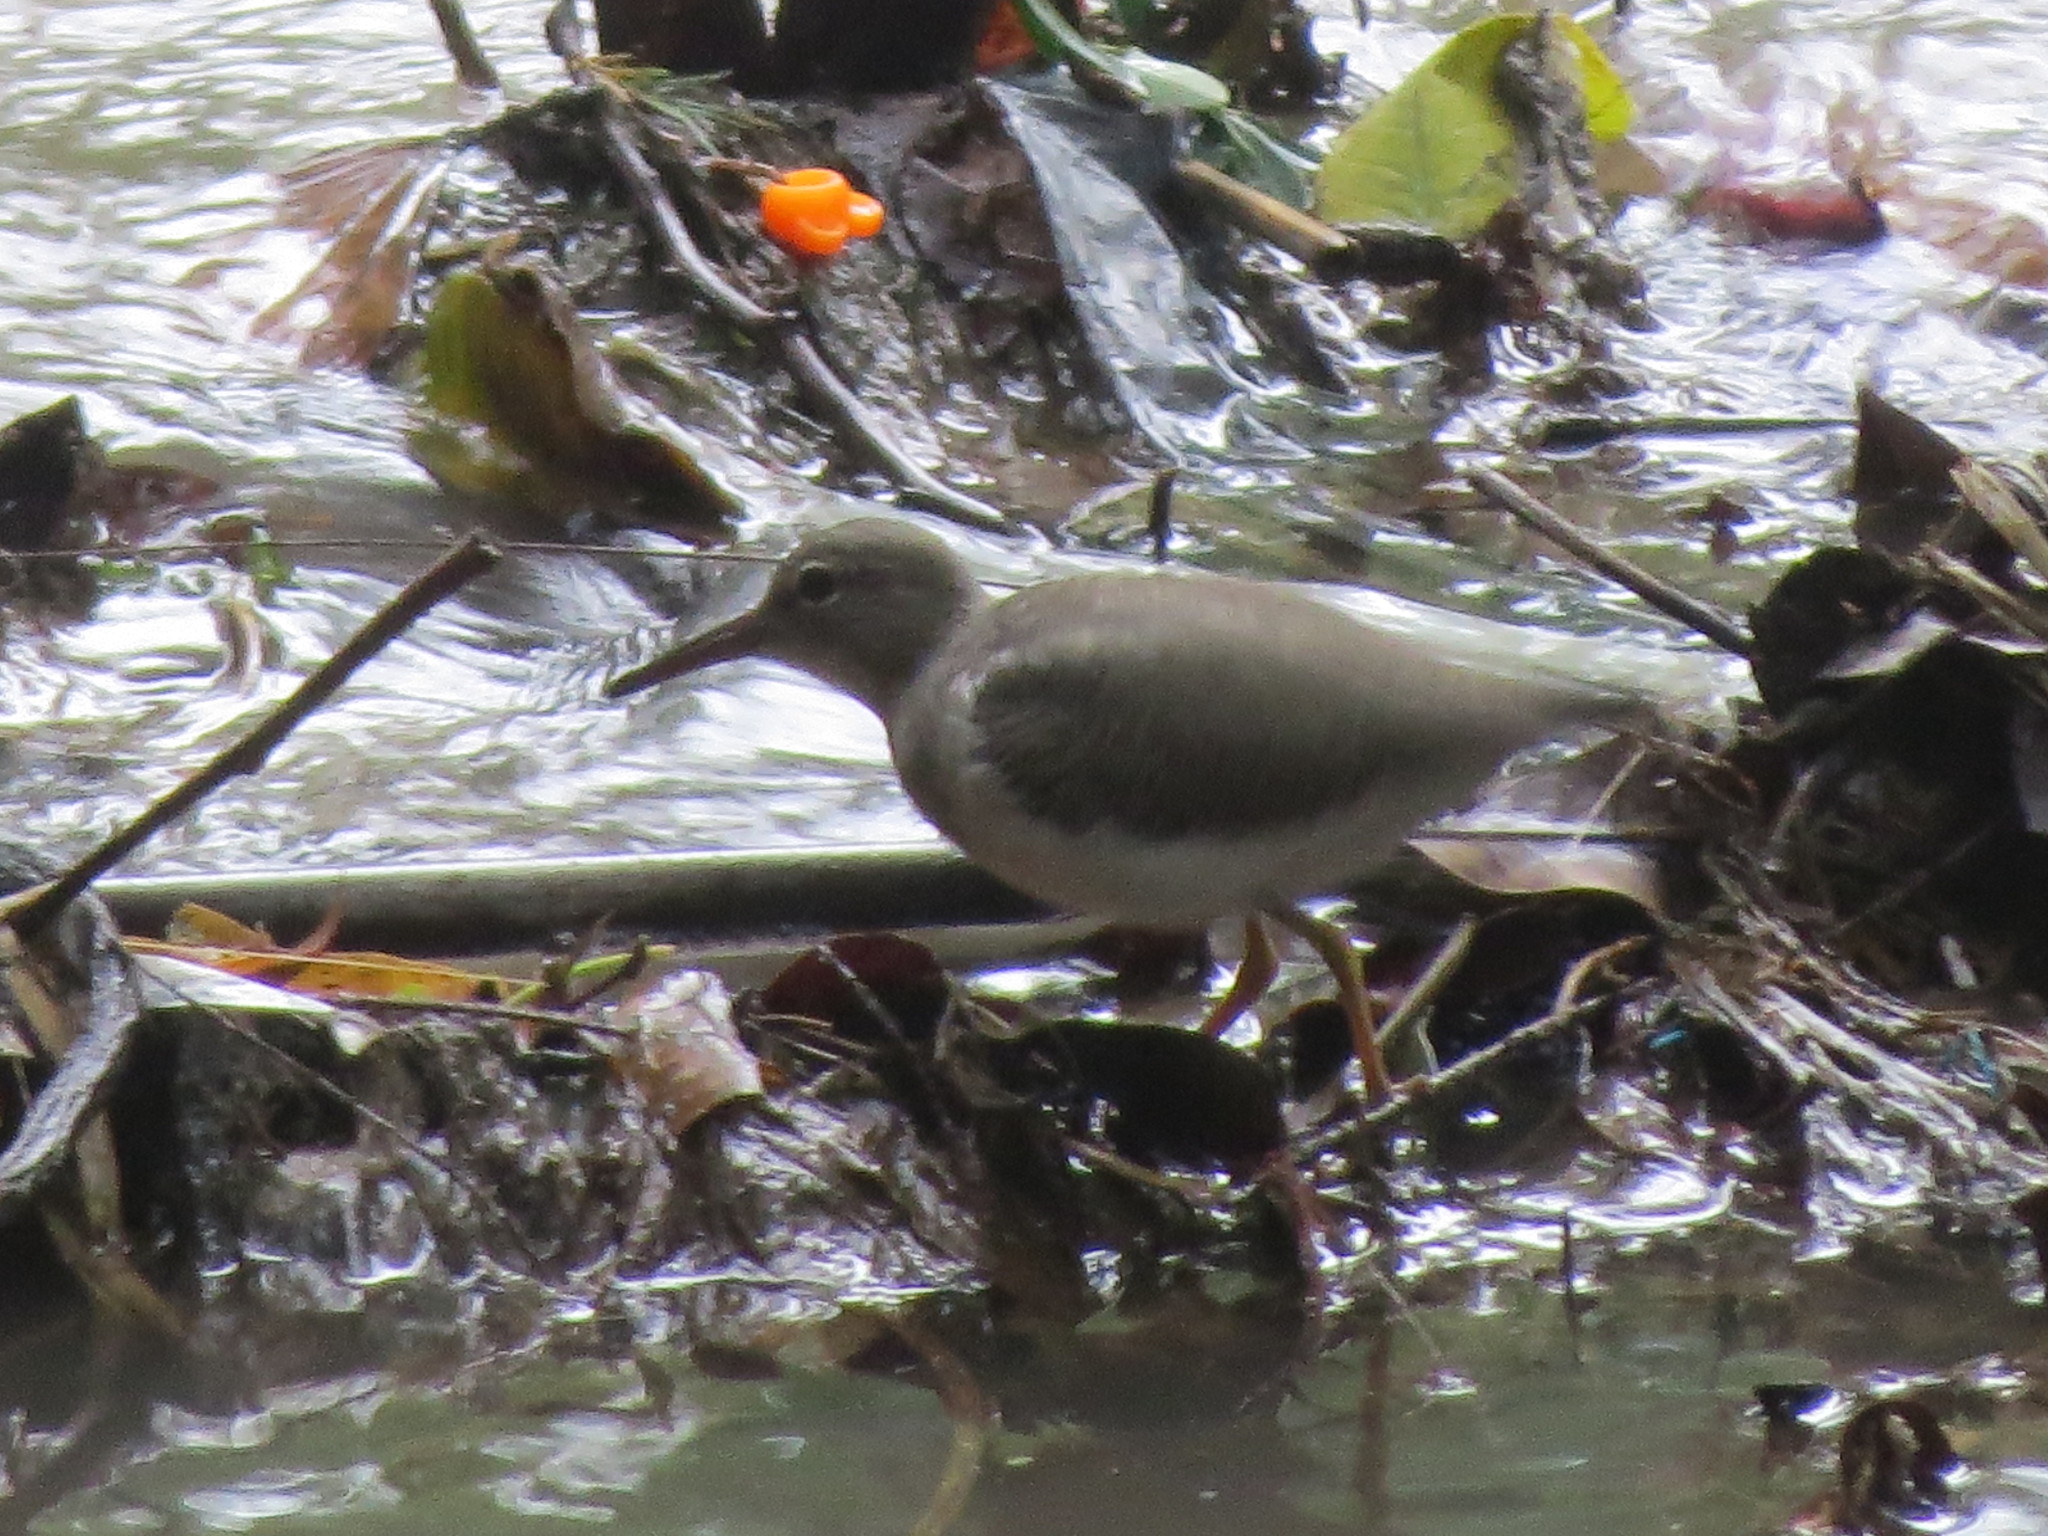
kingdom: Animalia
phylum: Chordata
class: Aves
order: Charadriiformes
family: Scolopacidae
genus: Actitis
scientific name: Actitis macularius
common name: Spotted sandpiper
